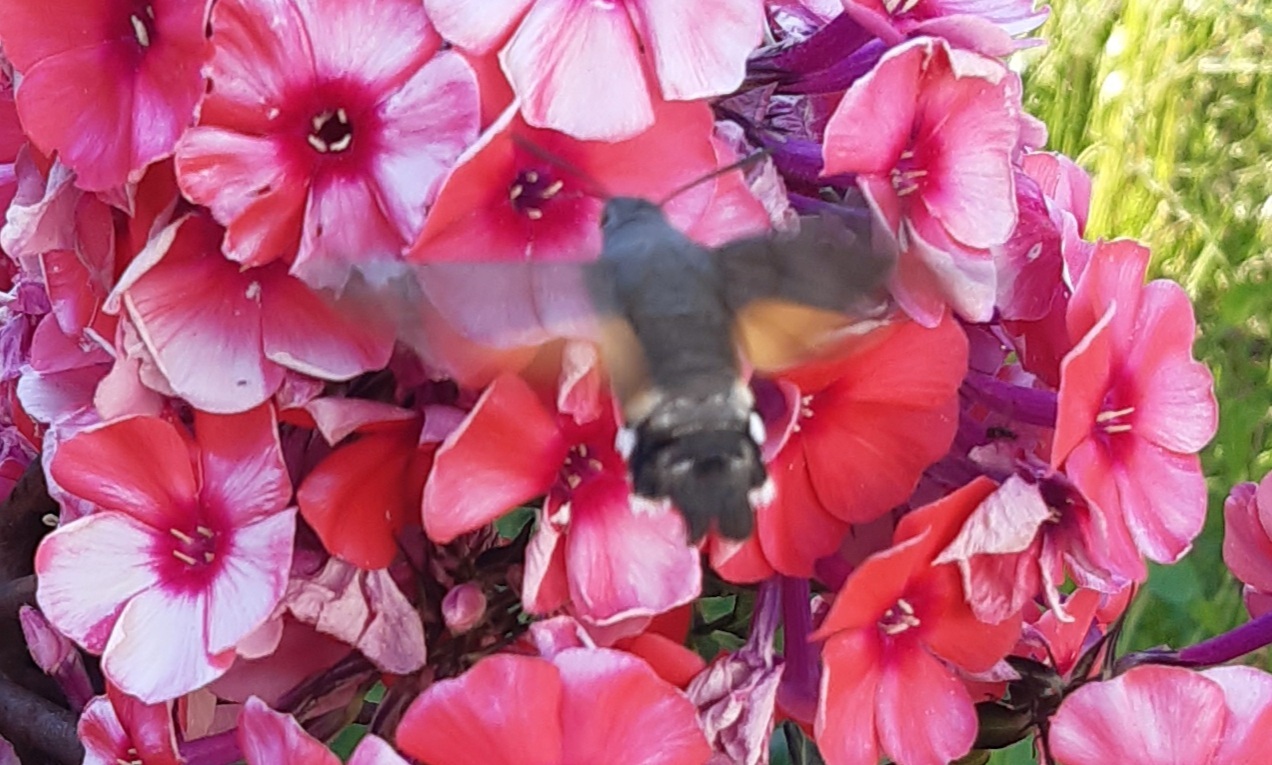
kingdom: Animalia
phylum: Arthropoda
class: Insecta
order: Lepidoptera
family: Sphingidae
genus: Macroglossum
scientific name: Macroglossum stellatarum
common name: Humming-bird hawk-moth
